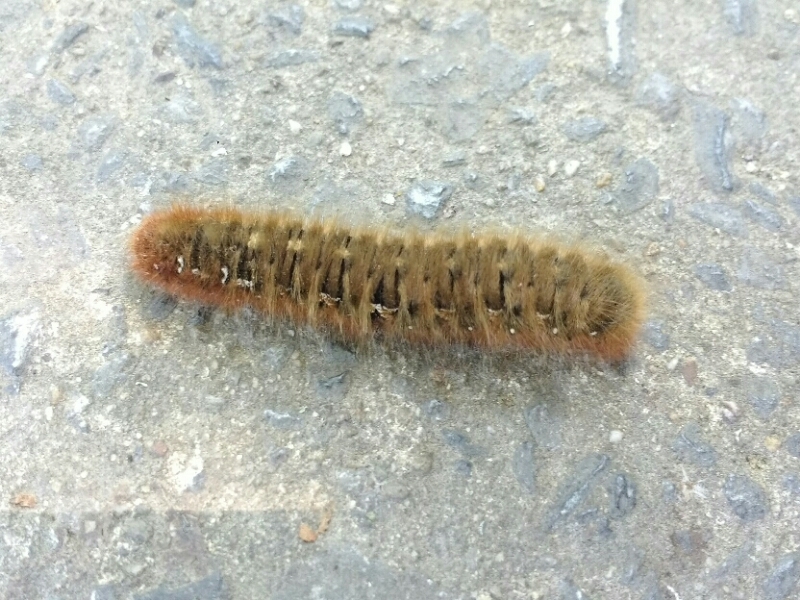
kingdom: Animalia
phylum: Arthropoda
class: Insecta
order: Lepidoptera
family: Lasiocampidae
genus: Lasiocampa
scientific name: Lasiocampa quercus
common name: Oak eggar
